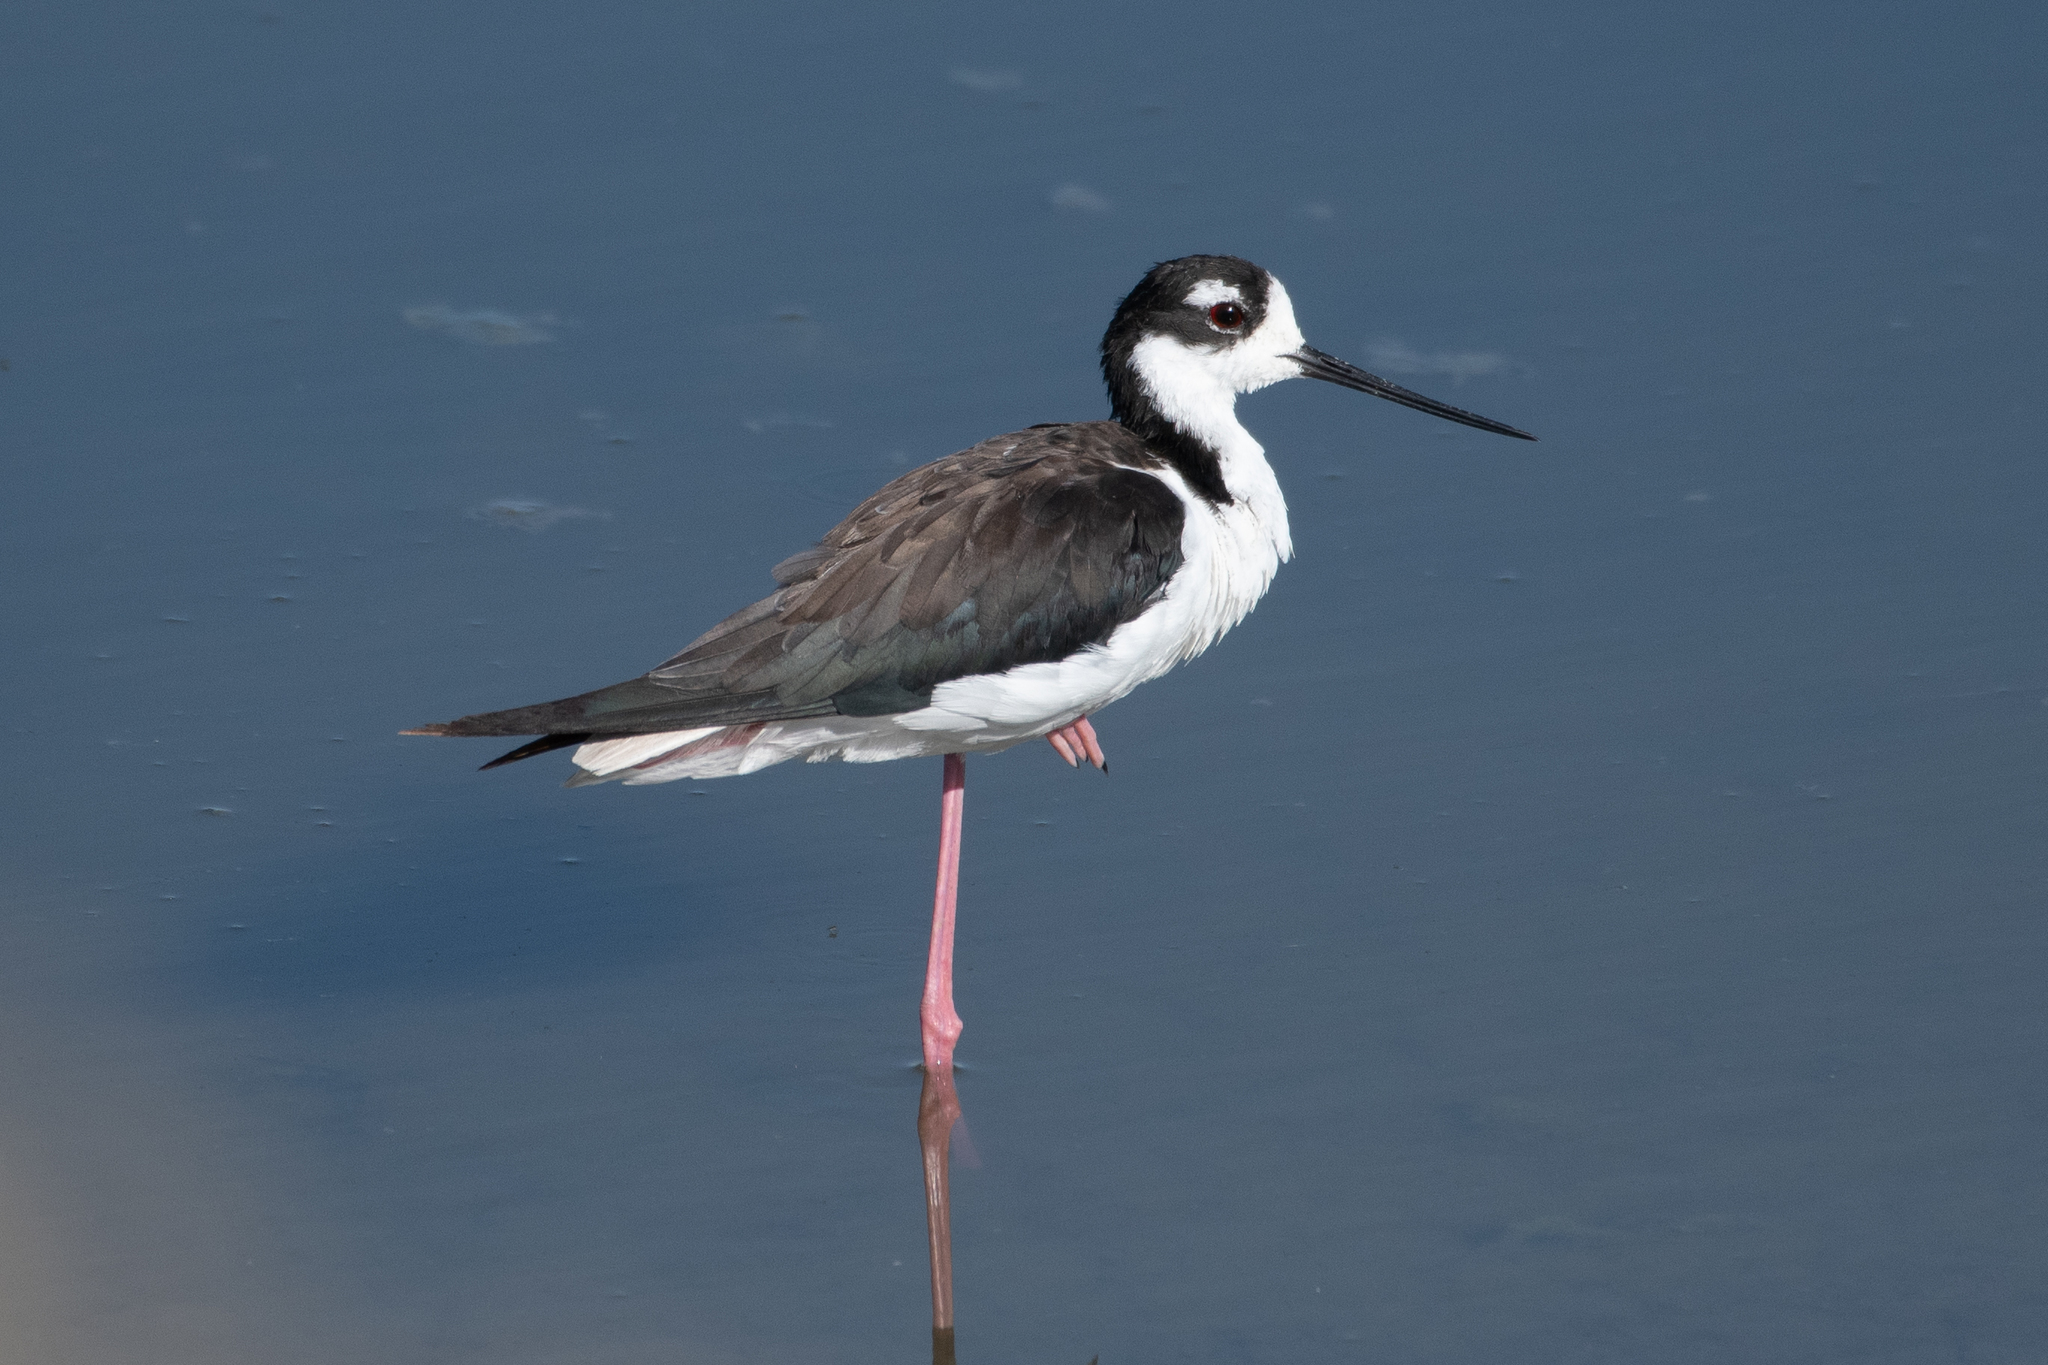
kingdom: Animalia
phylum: Chordata
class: Aves
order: Charadriiformes
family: Recurvirostridae
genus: Himantopus
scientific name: Himantopus mexicanus
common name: Black-necked stilt
